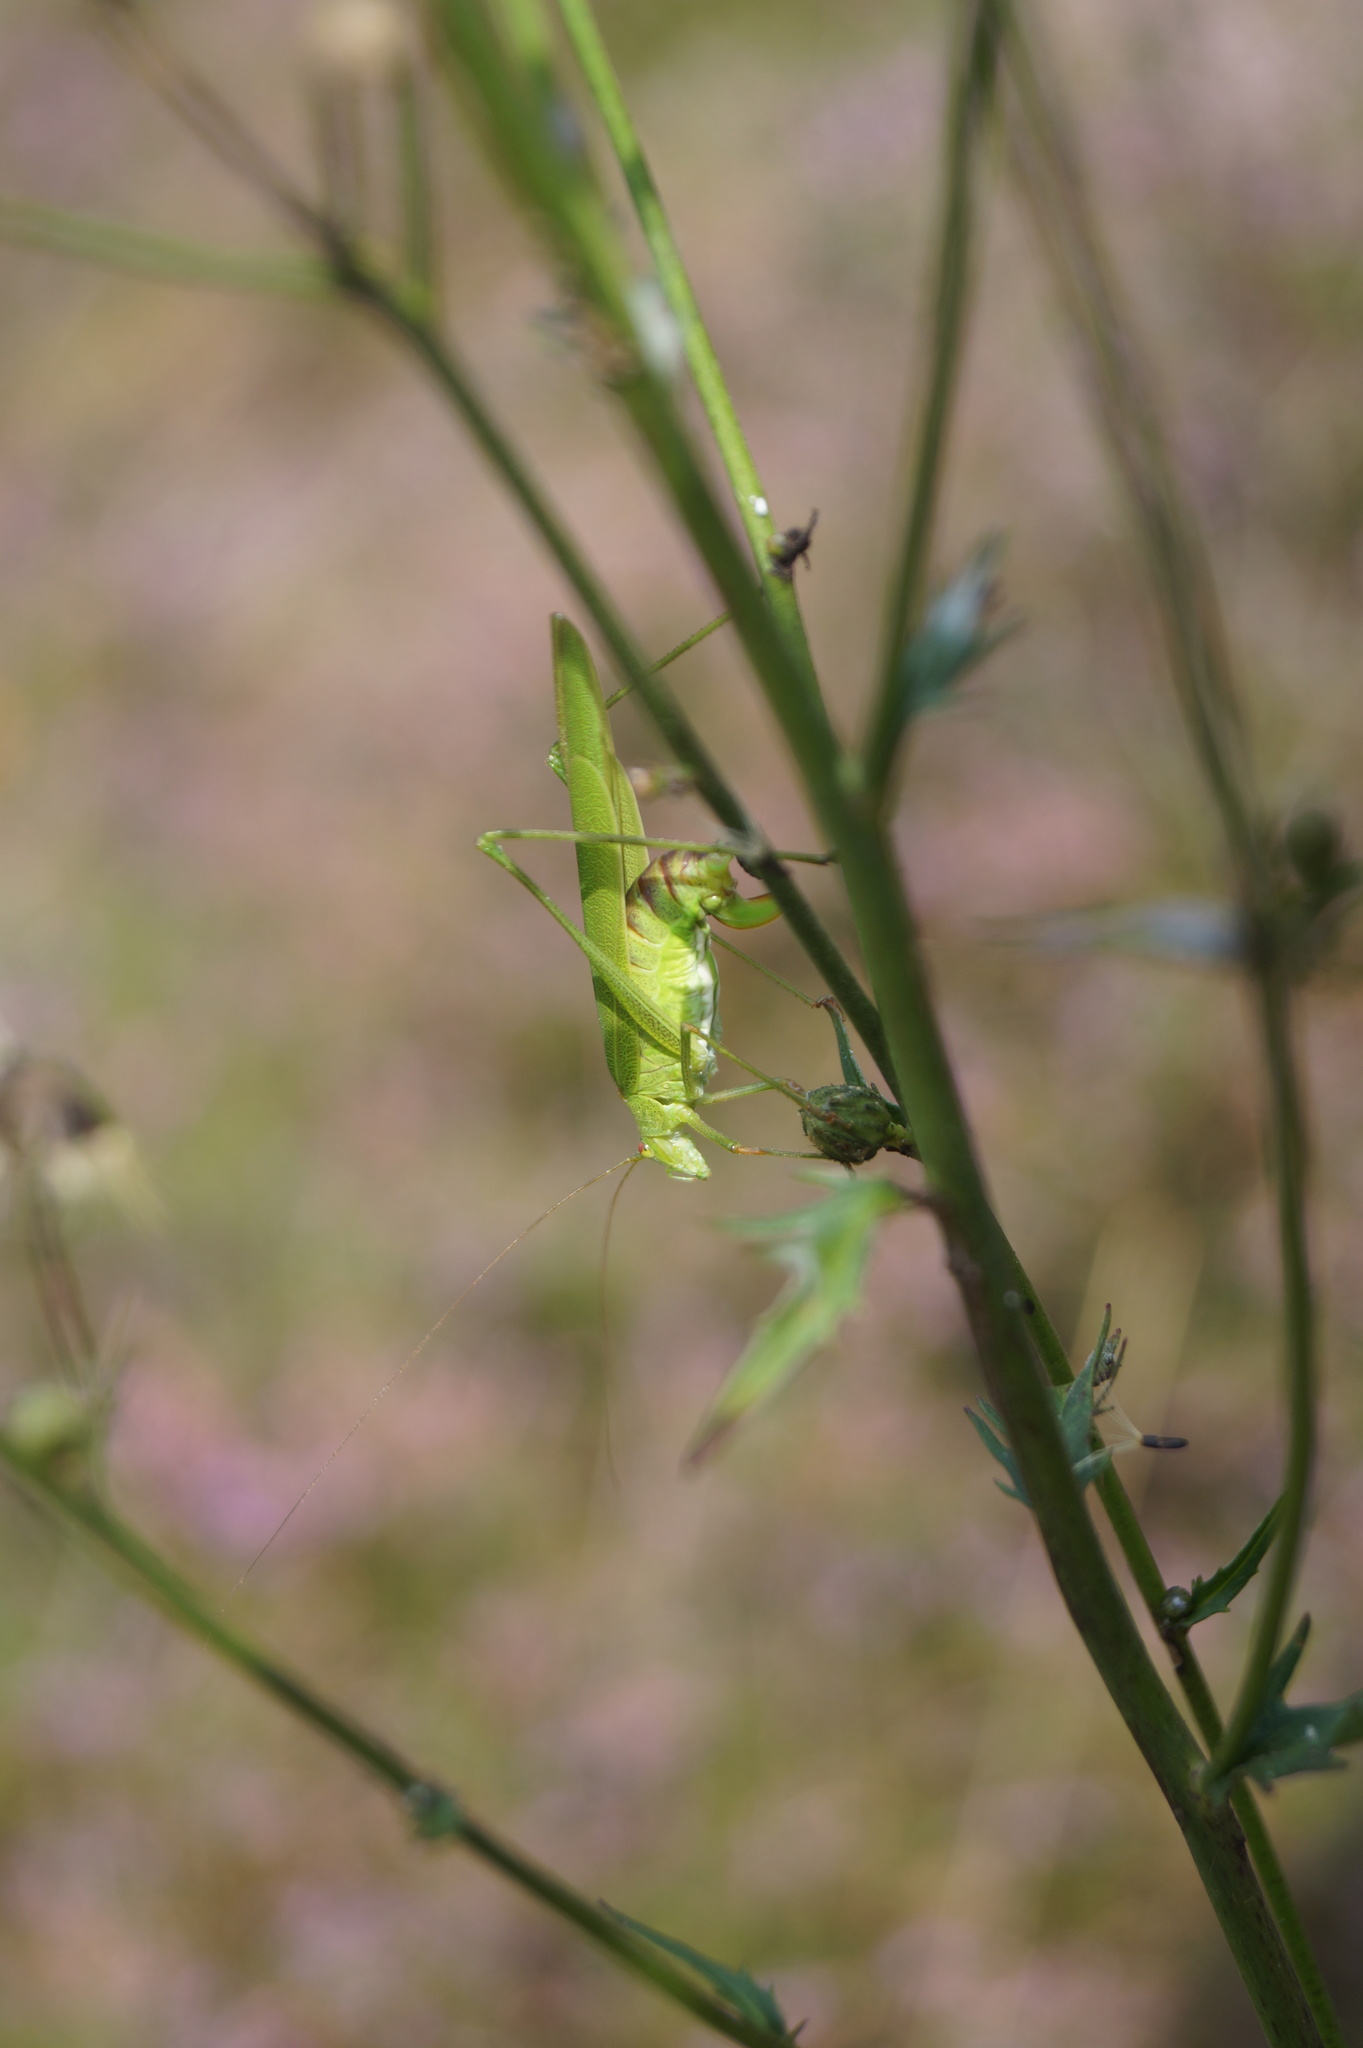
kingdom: Animalia
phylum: Arthropoda
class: Insecta
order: Orthoptera
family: Tettigoniidae
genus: Phaneroptera
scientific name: Phaneroptera falcata
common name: Sickle-bearing bush-cricket
